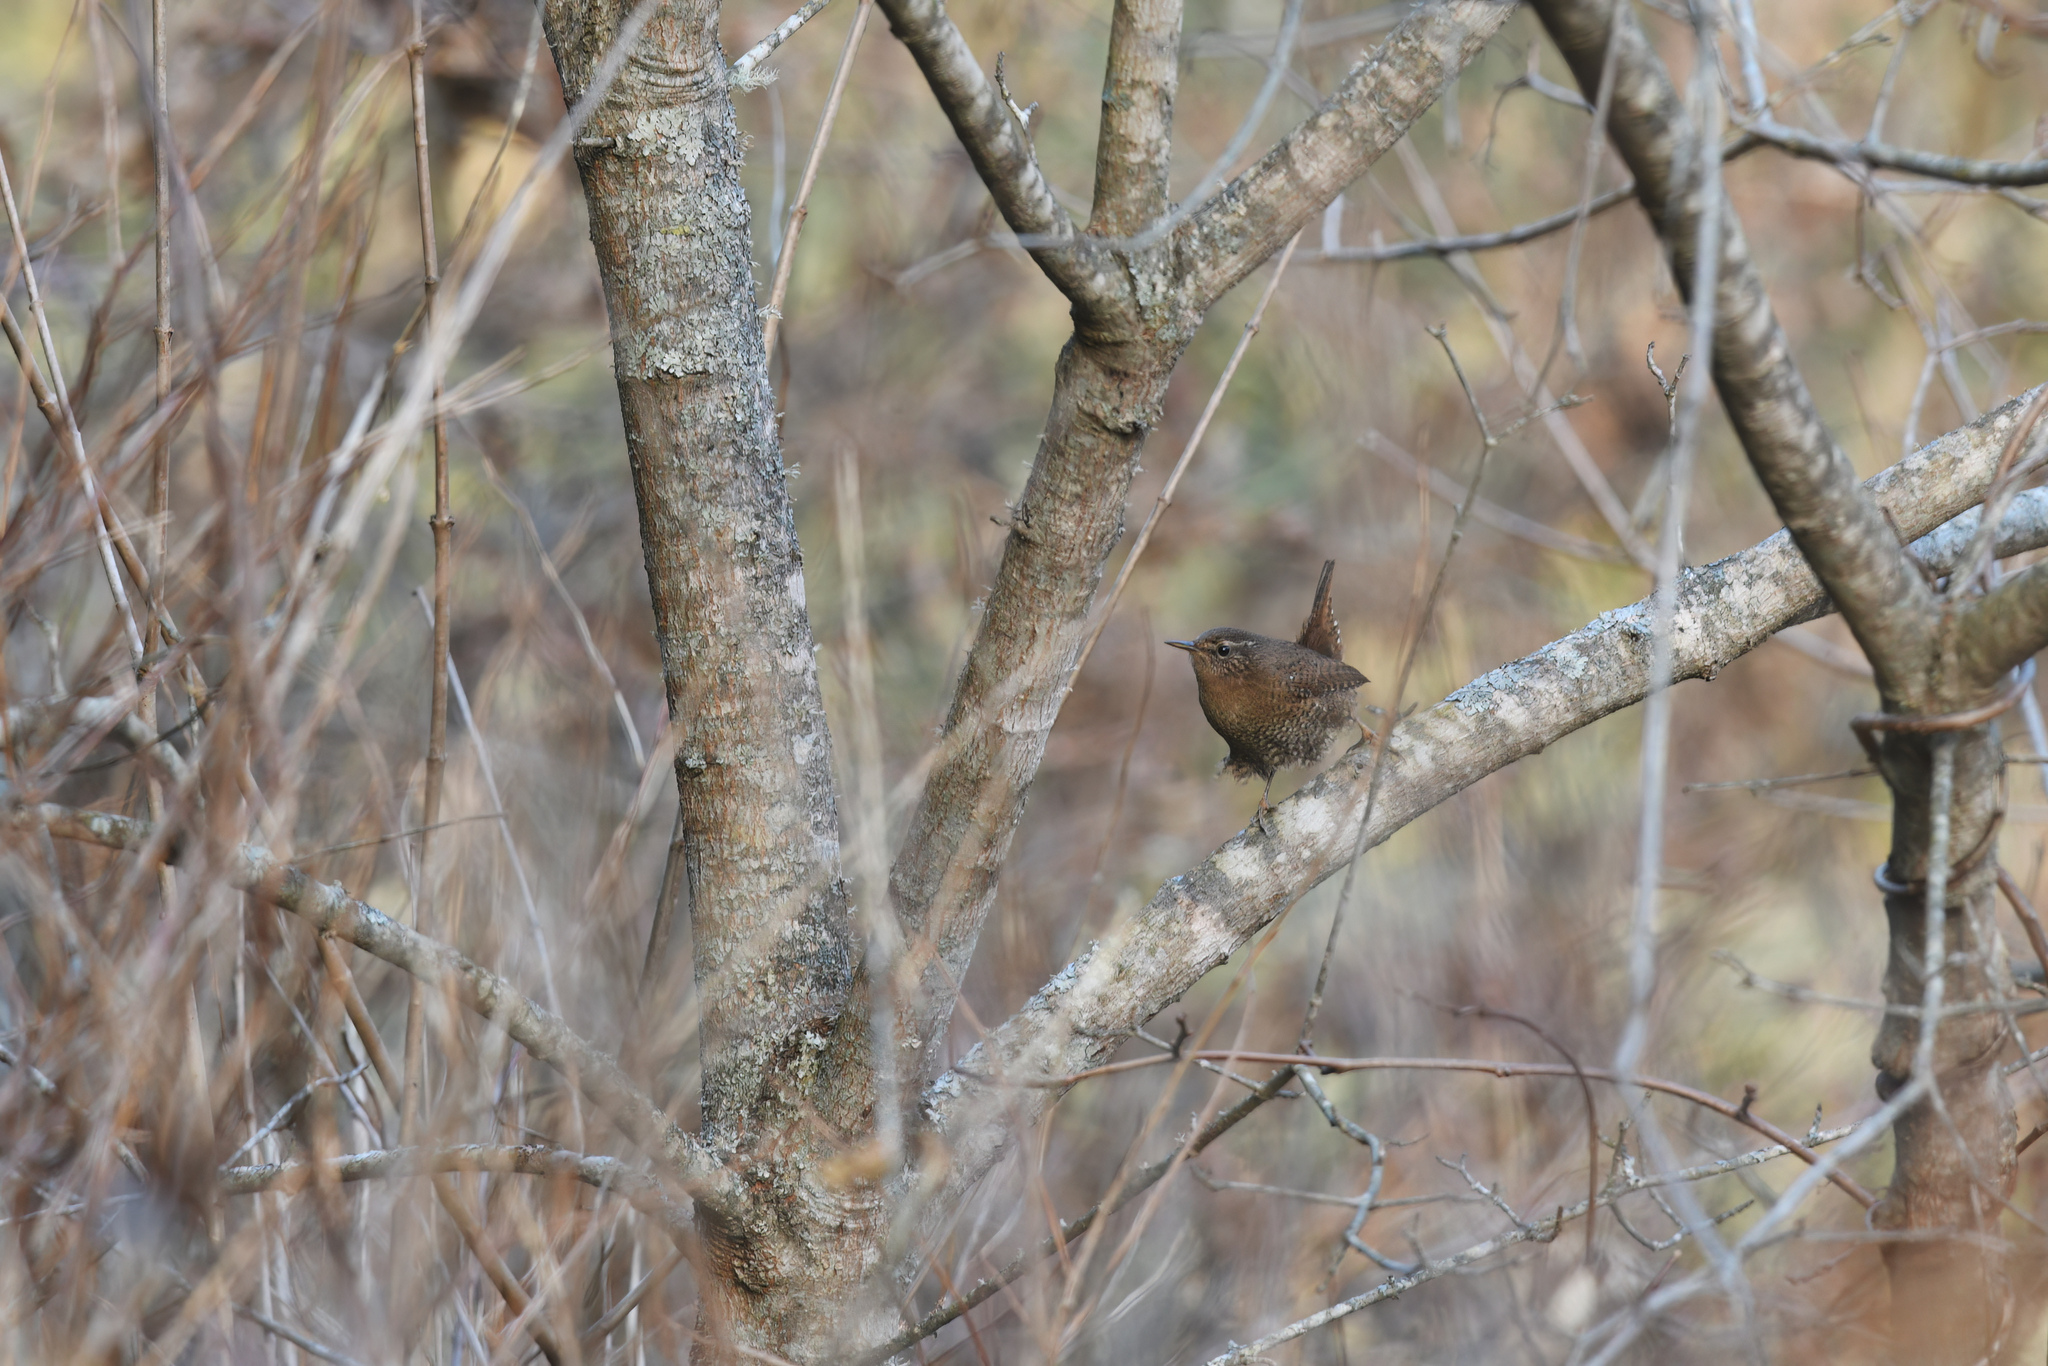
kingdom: Animalia
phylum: Chordata
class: Aves
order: Passeriformes
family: Troglodytidae
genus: Troglodytes
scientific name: Troglodytes troglodytes
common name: Eurasian wren
